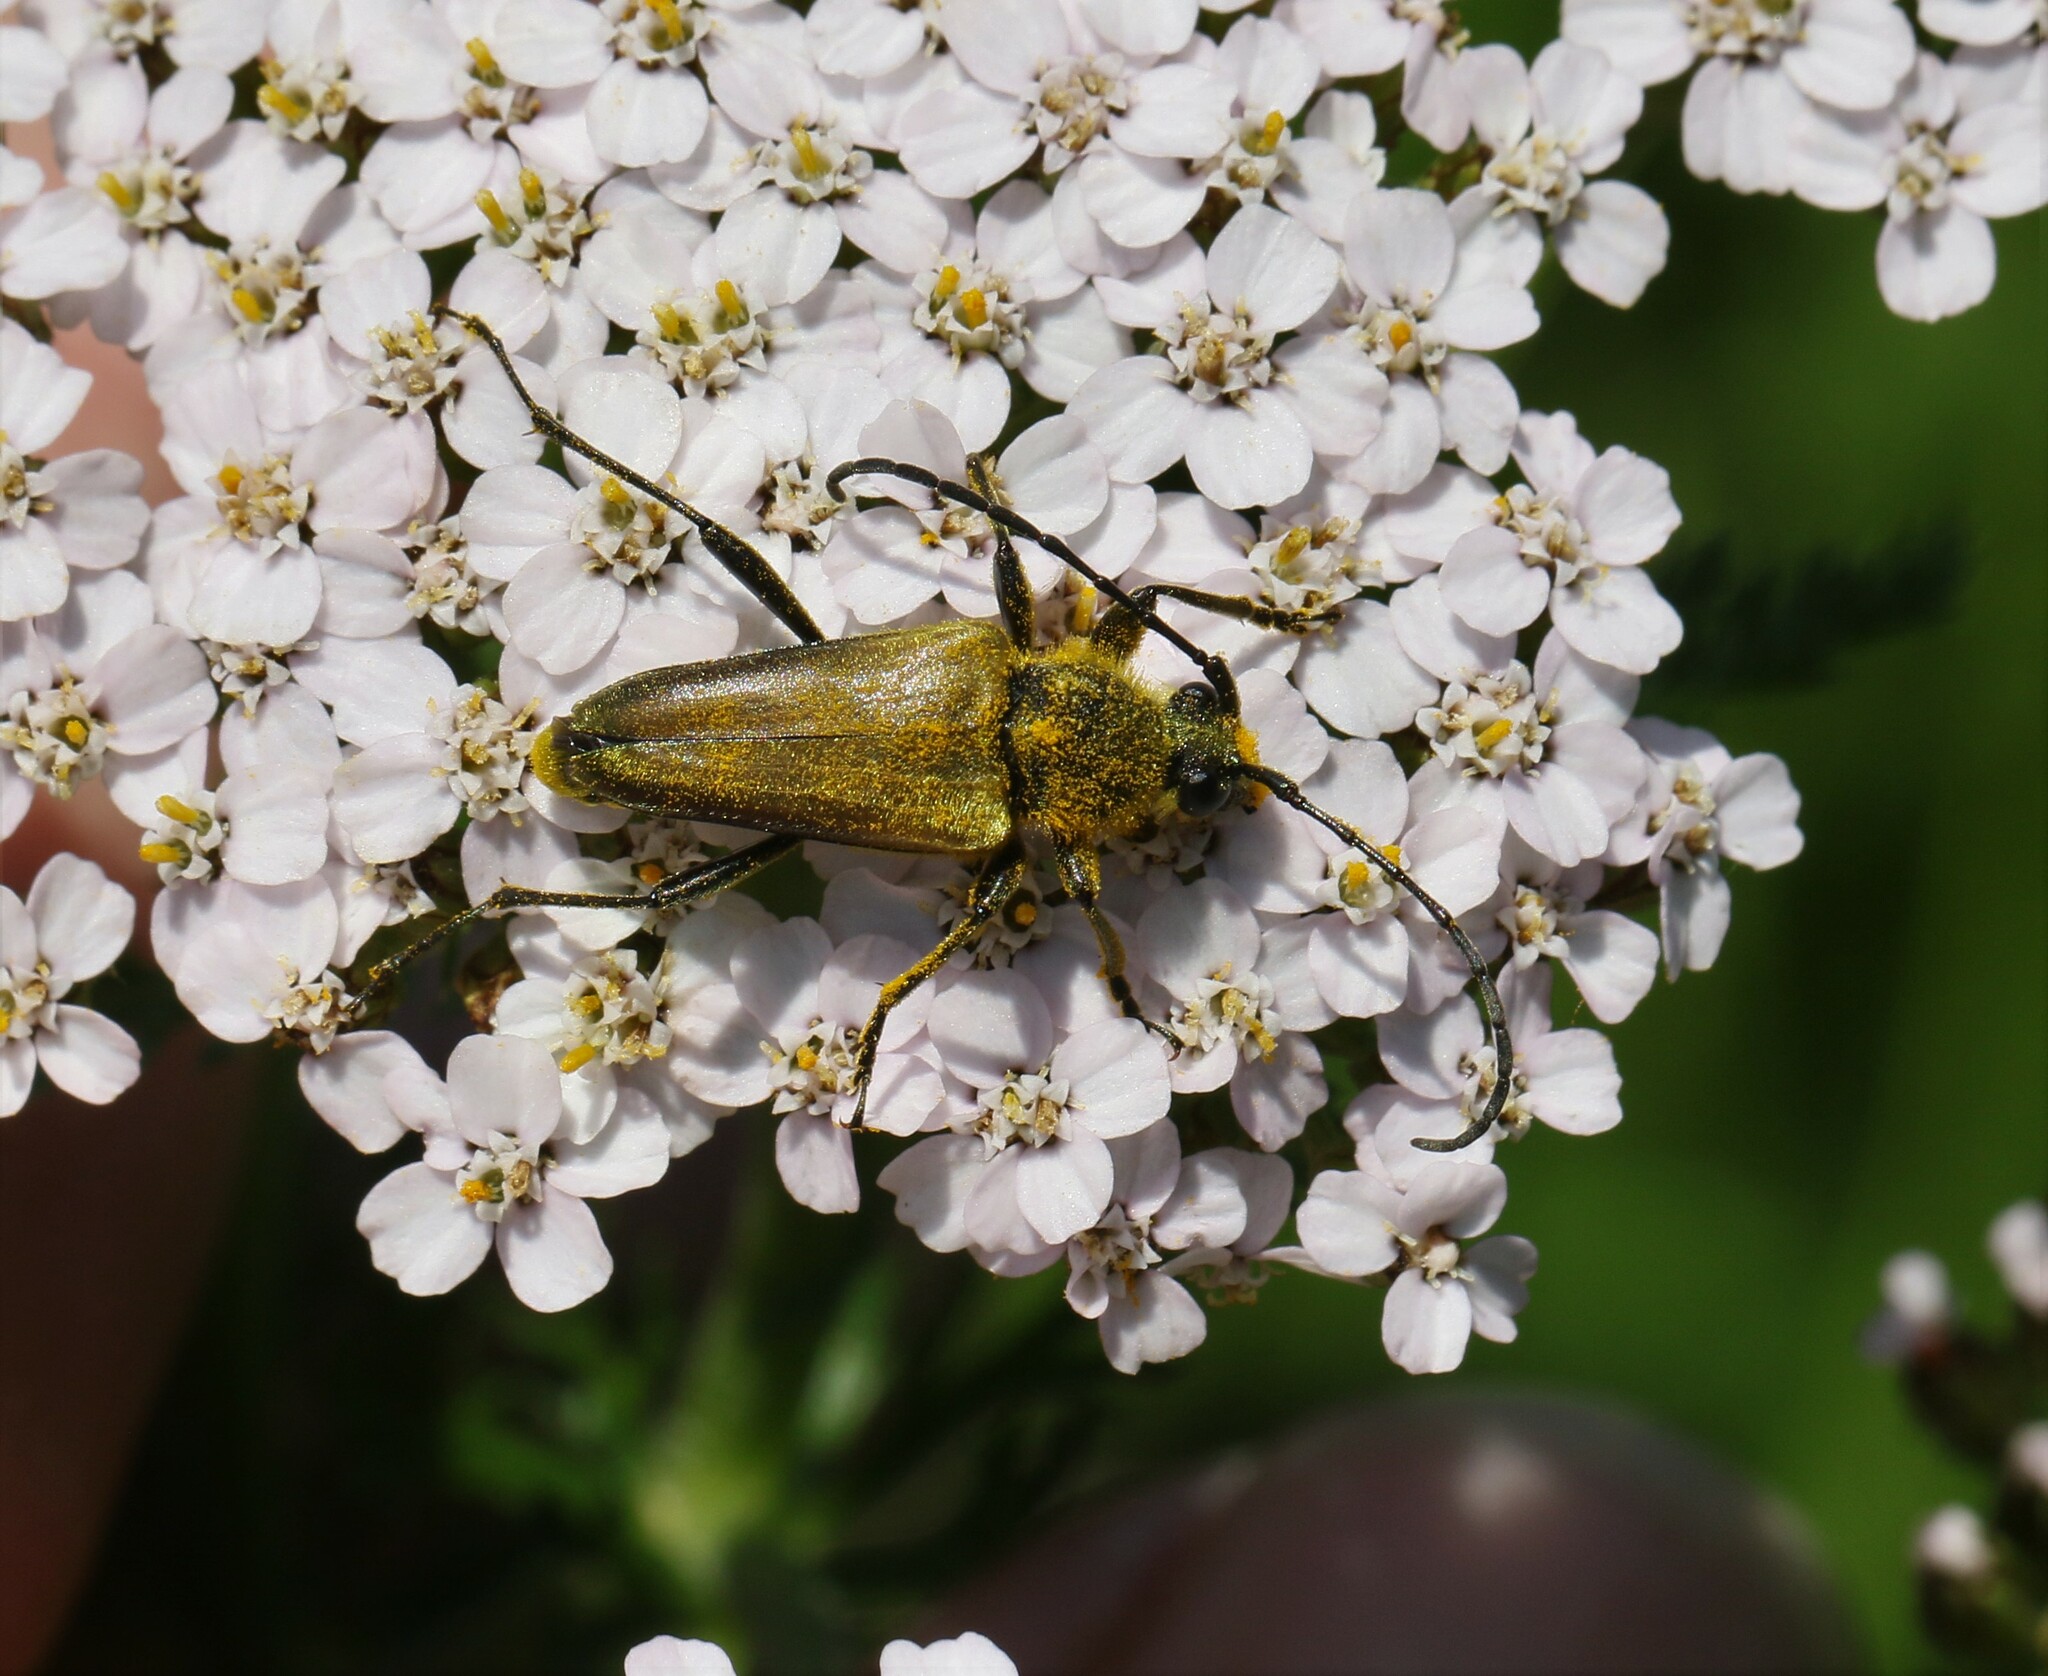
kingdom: Animalia
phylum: Arthropoda
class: Insecta
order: Coleoptera
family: Cerambycidae
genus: Cosmosalia
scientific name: Cosmosalia chrysocoma
